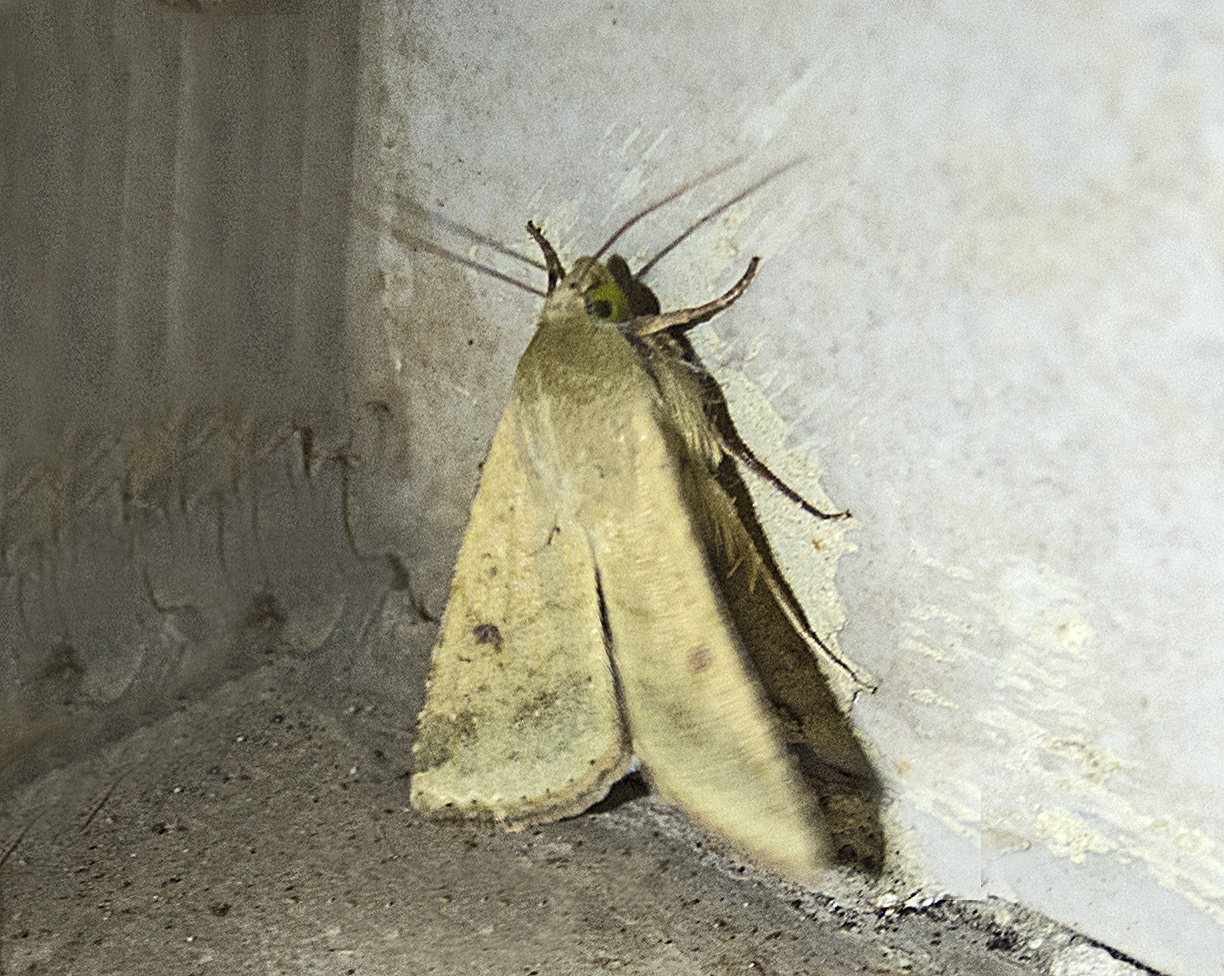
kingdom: Animalia
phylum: Arthropoda
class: Insecta
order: Lepidoptera
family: Noctuidae
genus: Helicoverpa
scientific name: Helicoverpa armigera
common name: Cotton bollworm
